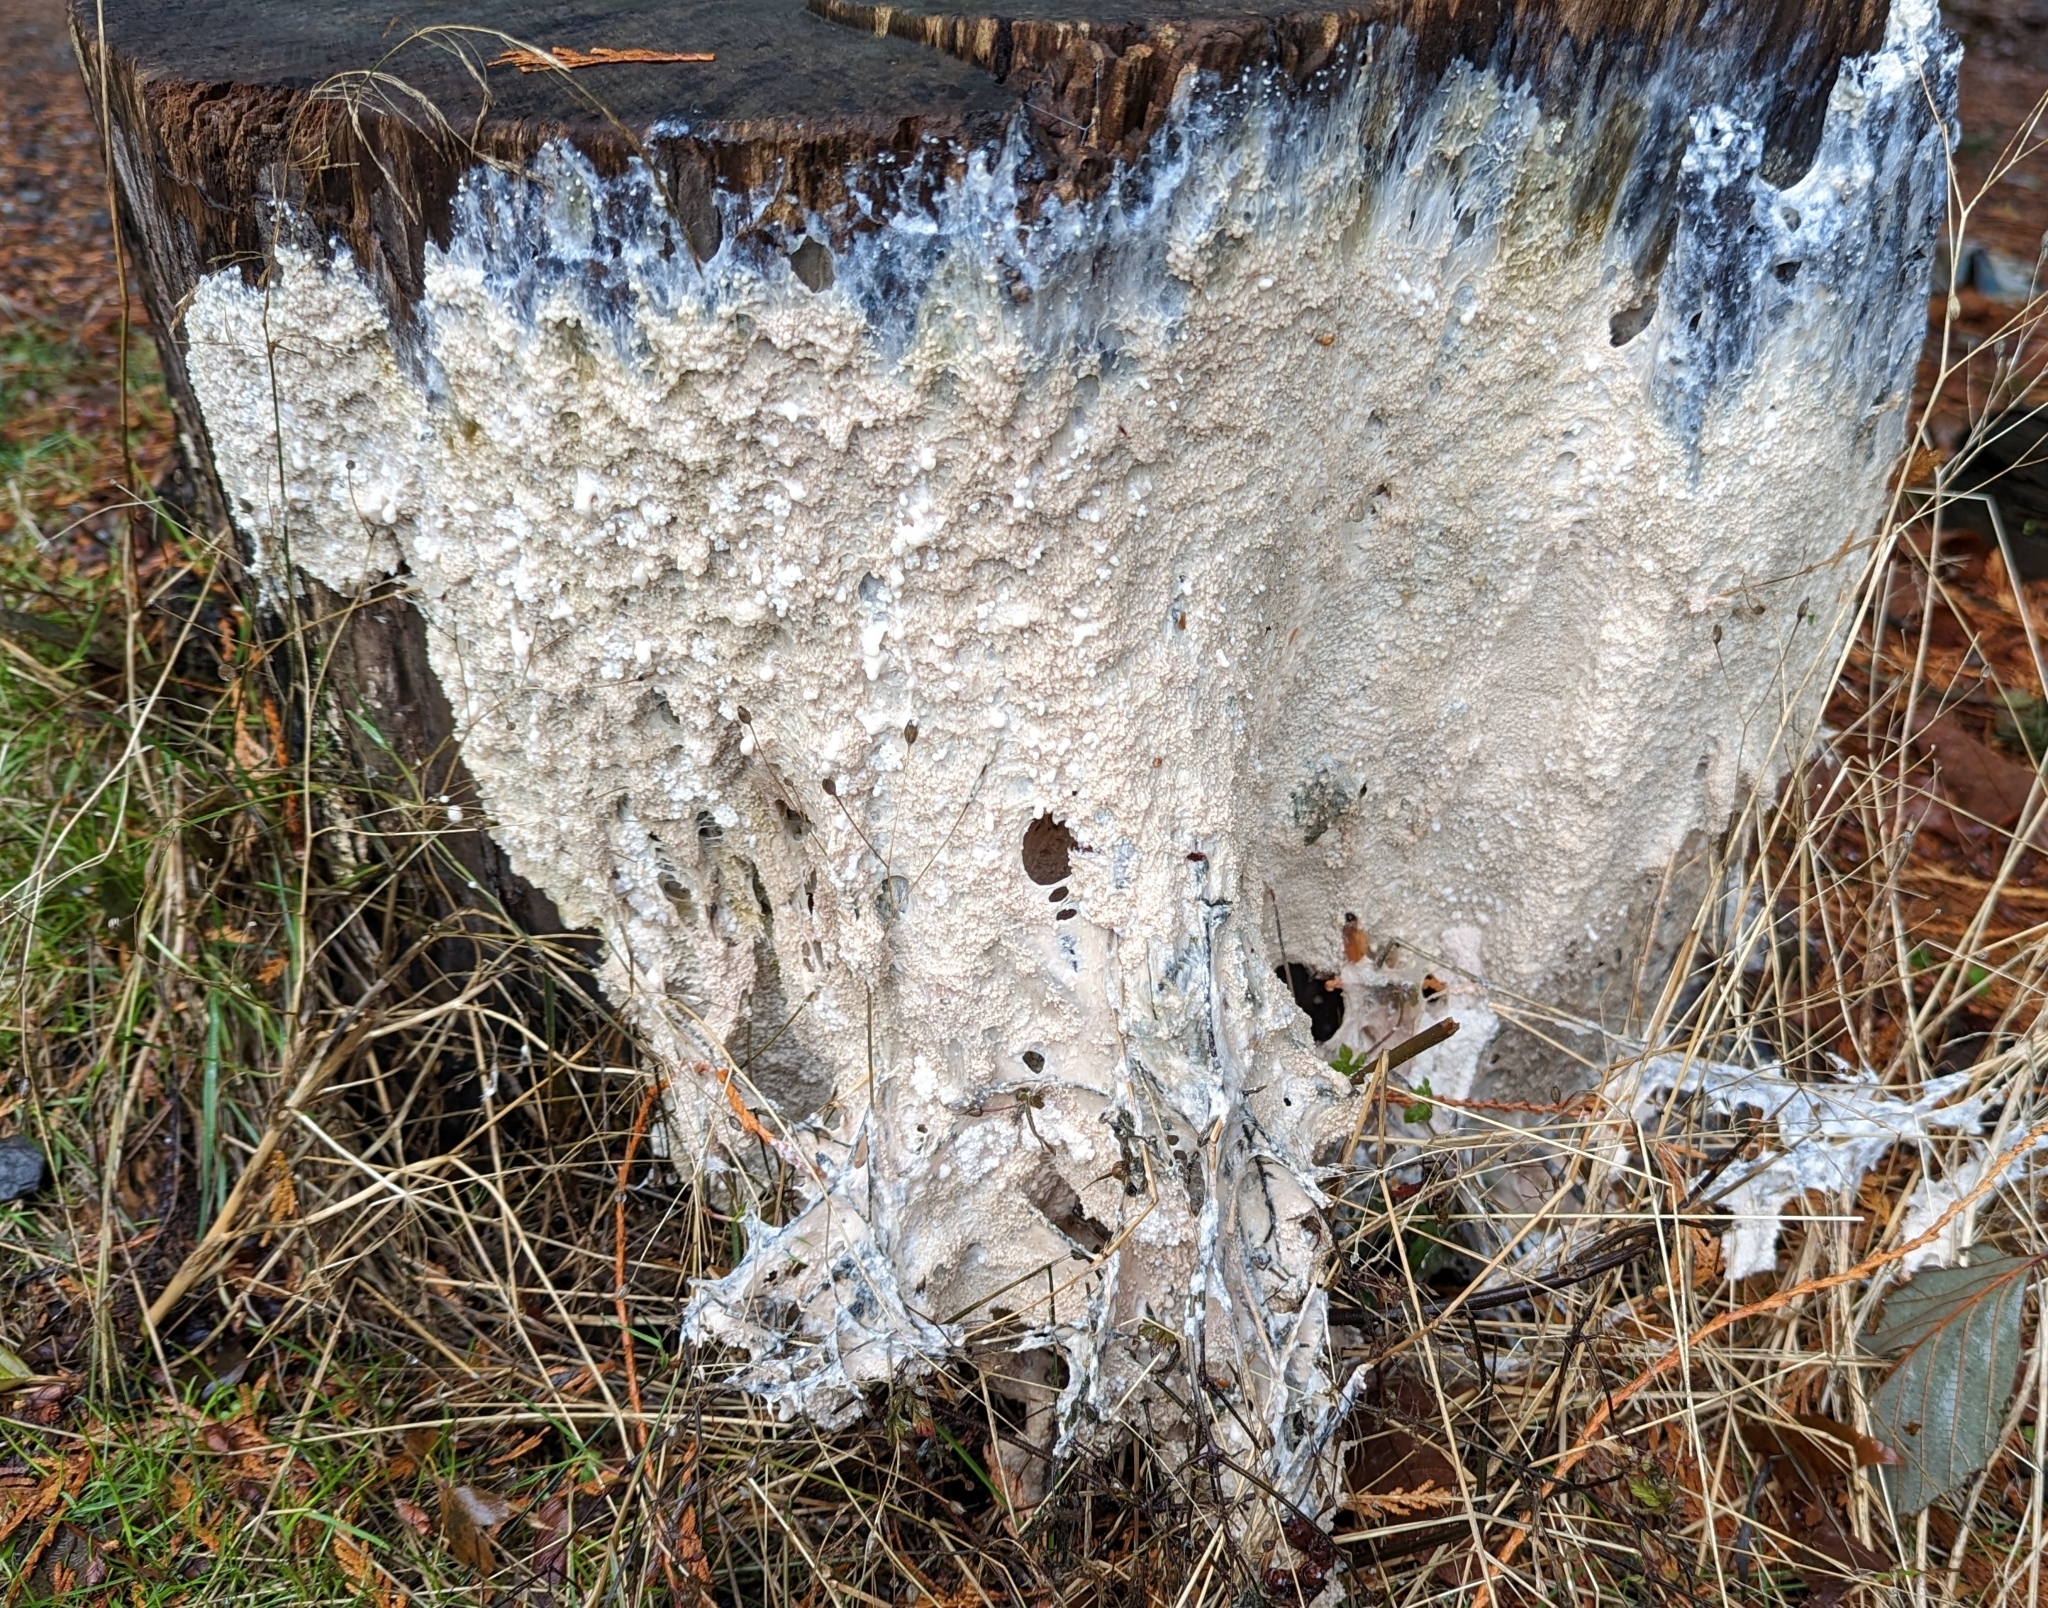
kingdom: Protozoa
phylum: Mycetozoa
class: Myxomycetes
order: Stemonitidales
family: Stemonitidaceae
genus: Brefeldia
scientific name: Brefeldia maxima
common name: Tapioca slime mold
